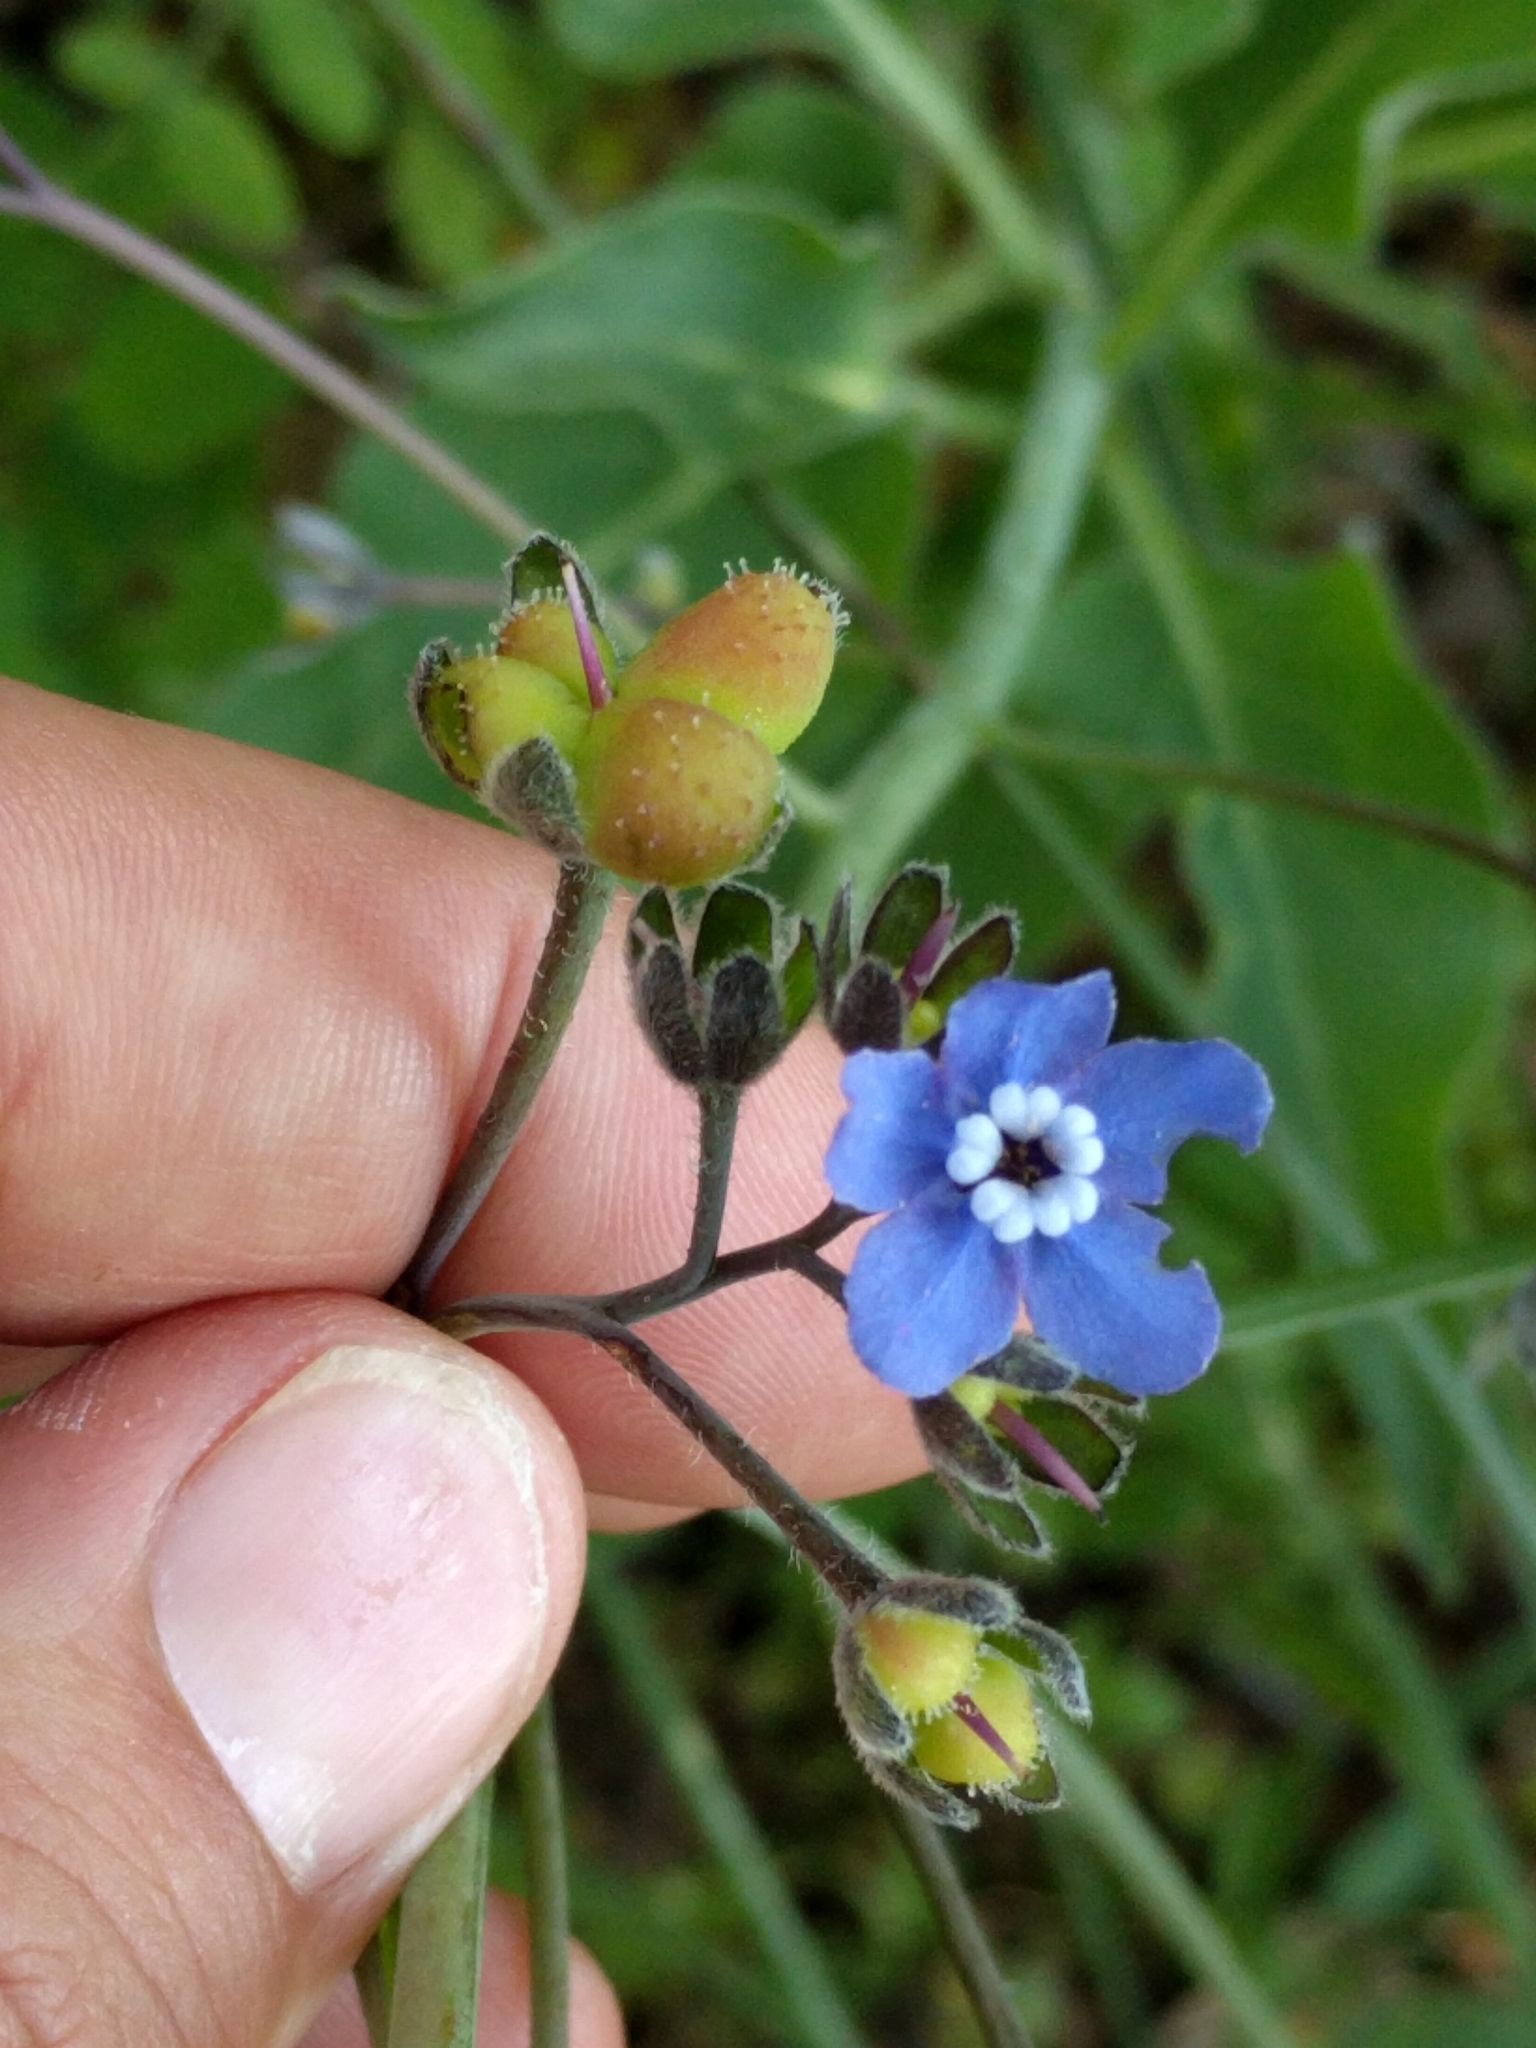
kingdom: Plantae
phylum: Tracheophyta
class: Magnoliopsida
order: Boraginales
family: Boraginaceae
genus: Adelinia
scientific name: Adelinia grande
